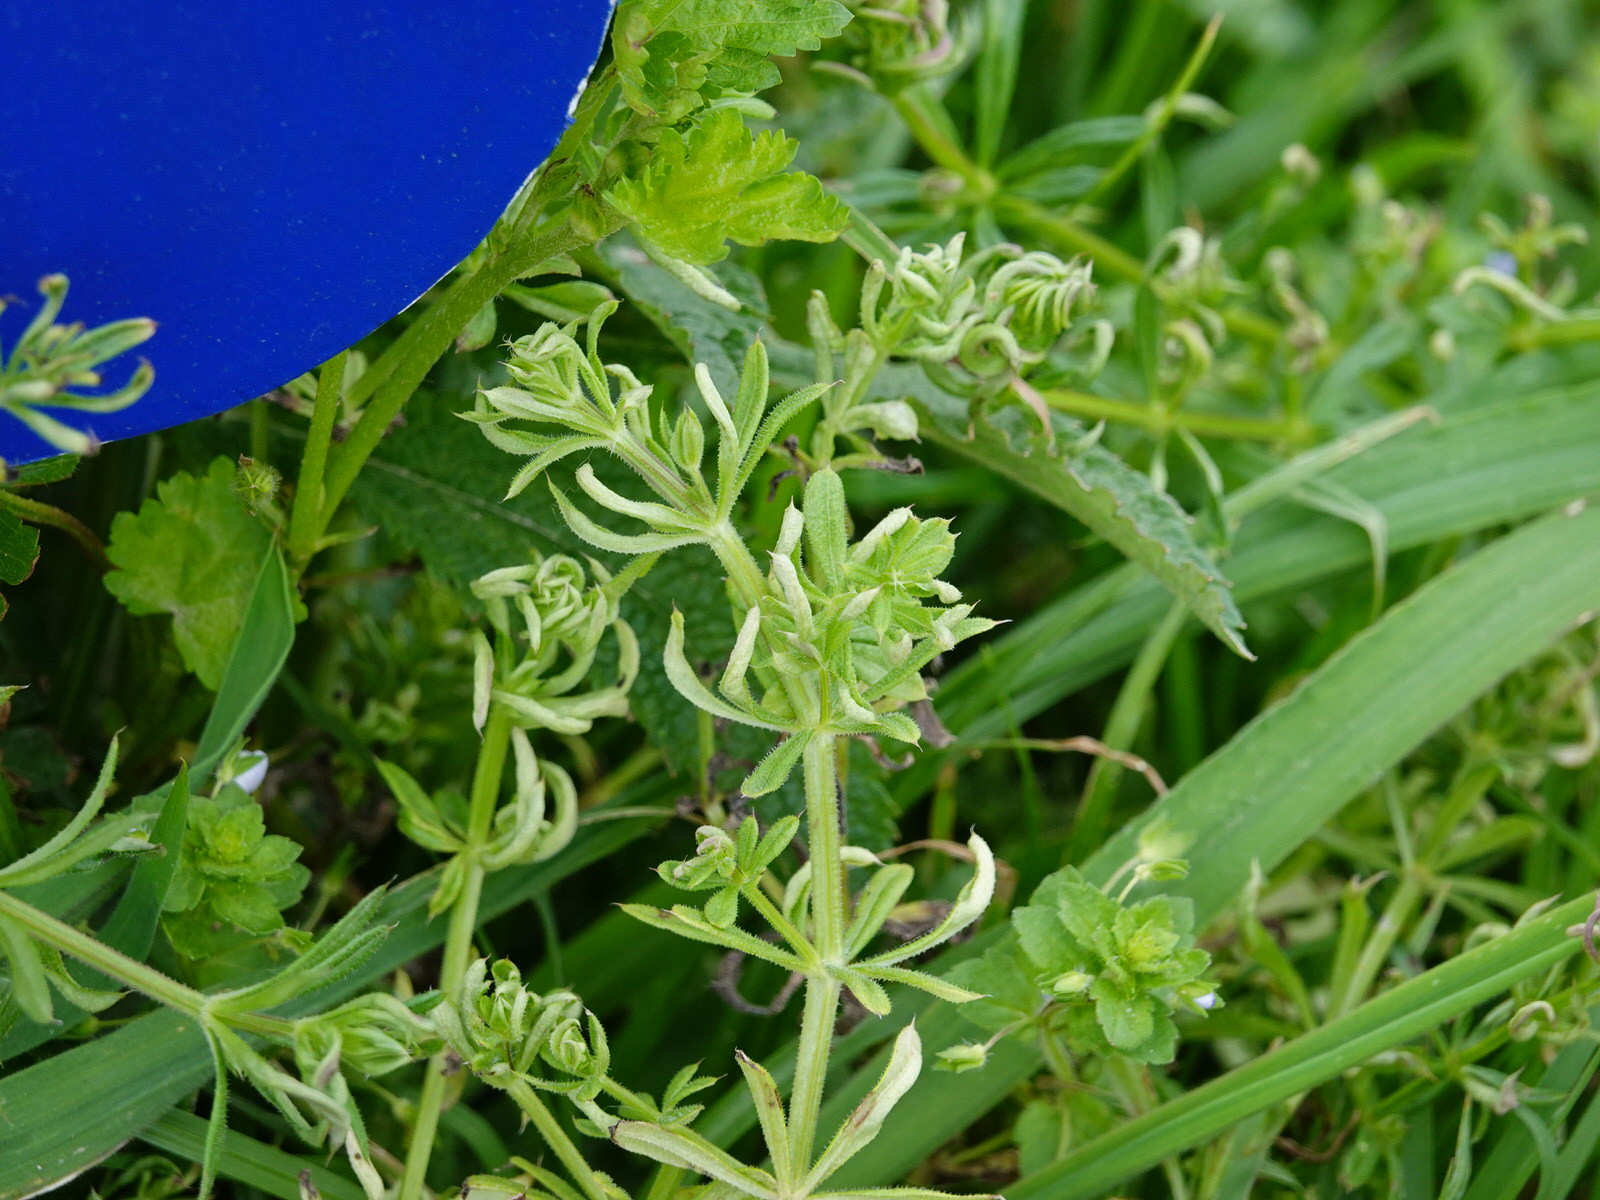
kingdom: Plantae
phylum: Tracheophyta
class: Magnoliopsida
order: Gentianales
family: Rubiaceae
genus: Galium
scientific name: Galium aparine
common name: Cleavers
